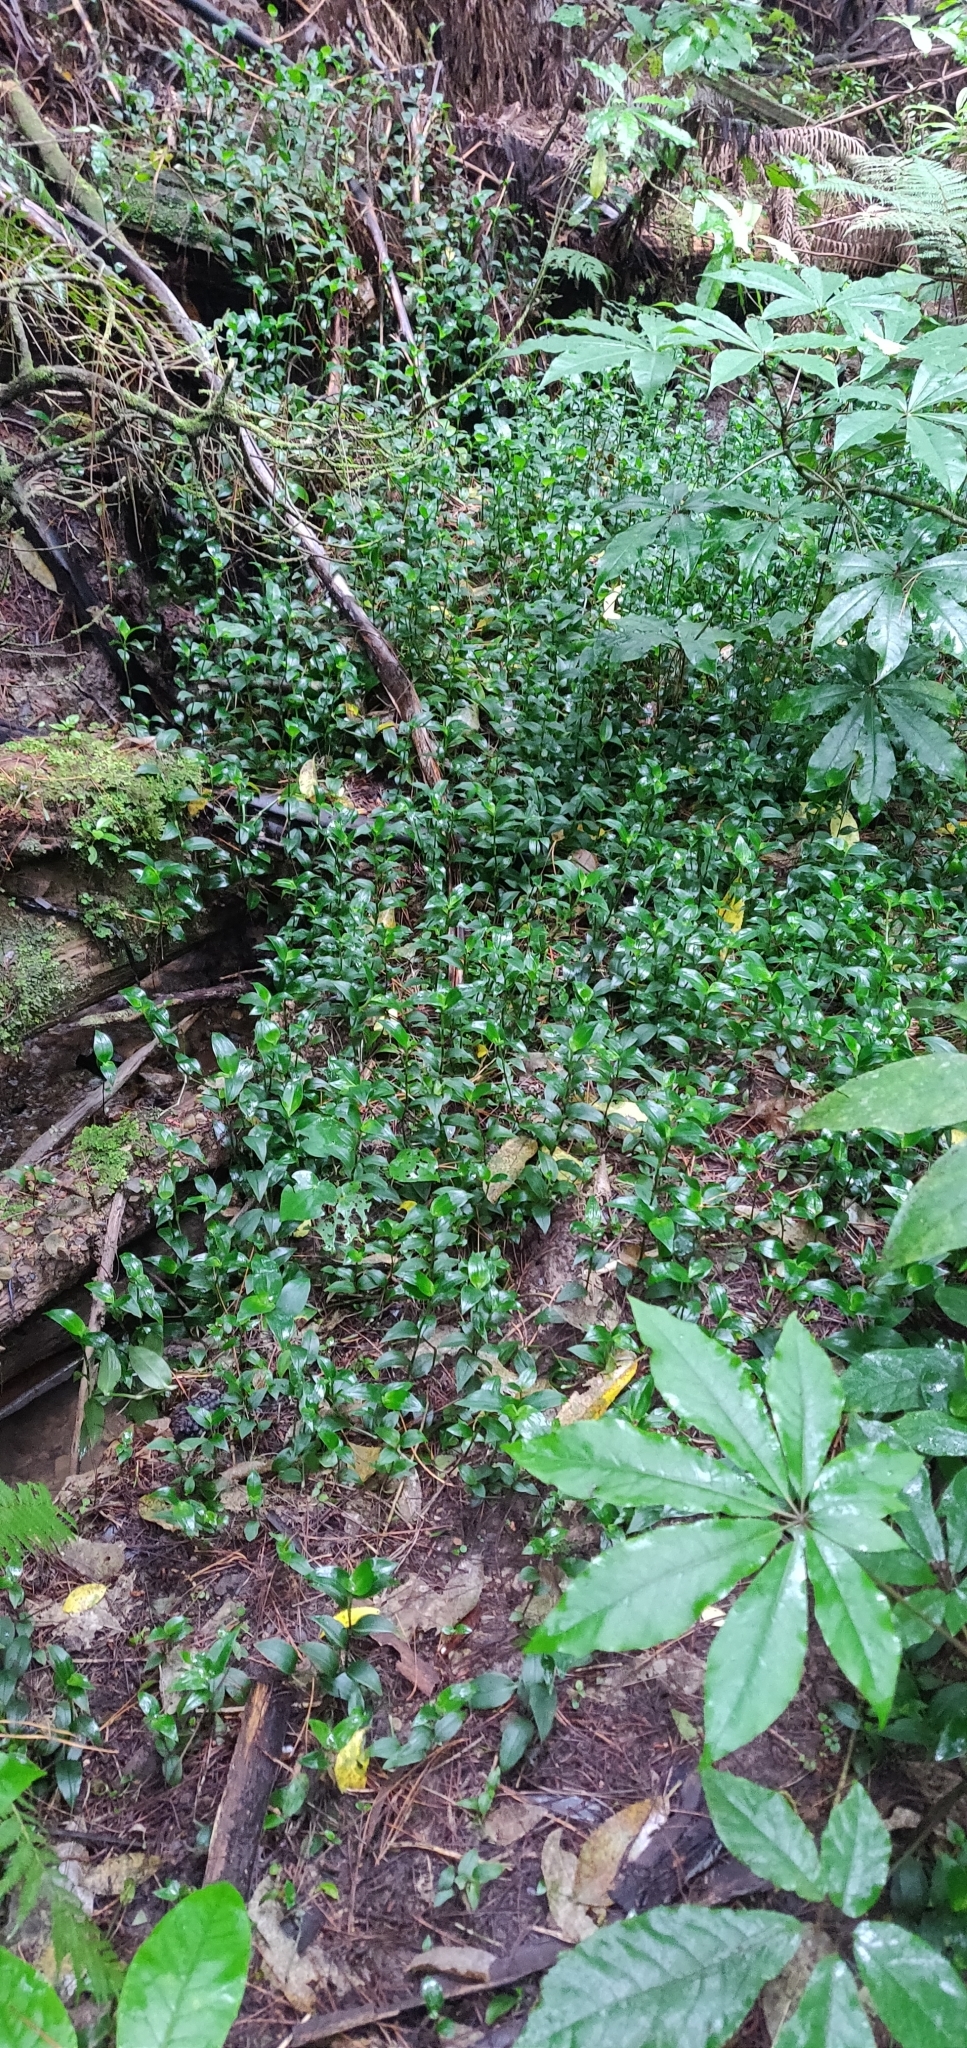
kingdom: Plantae
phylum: Tracheophyta
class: Liliopsida
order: Commelinales
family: Commelinaceae
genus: Tradescantia
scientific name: Tradescantia fluminensis
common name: Wandering-jew
